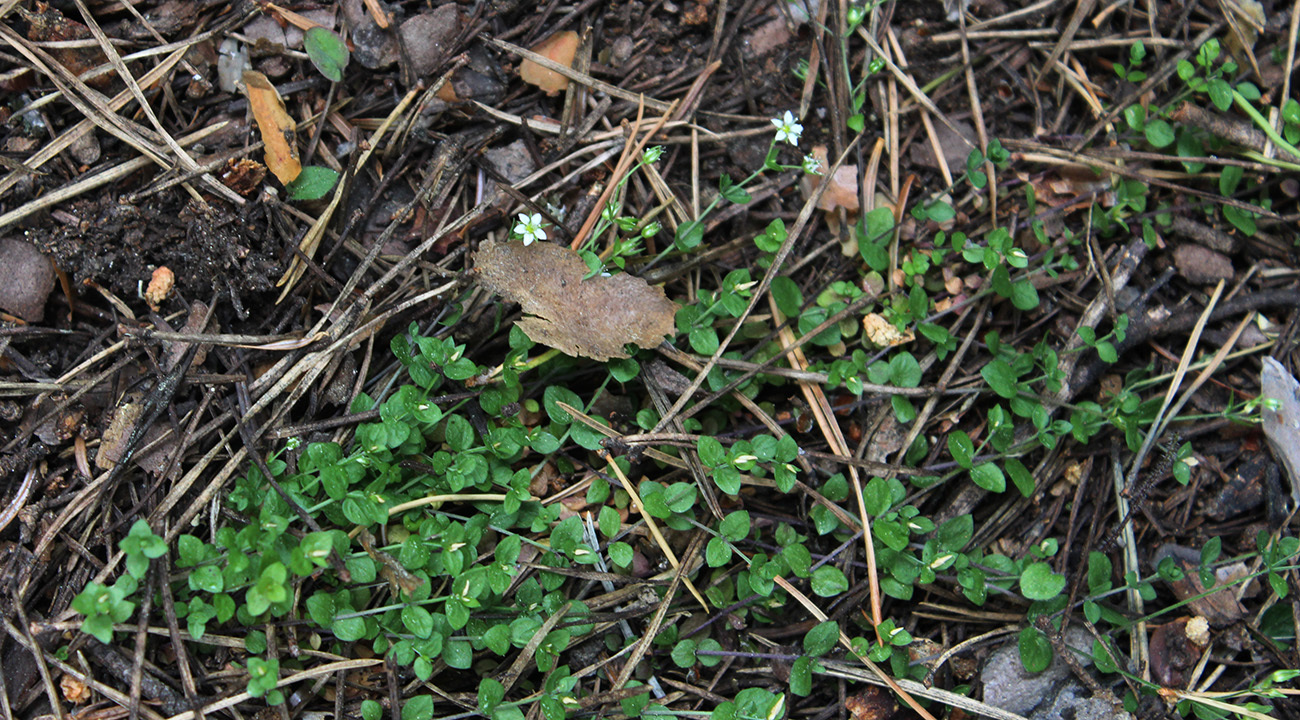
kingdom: Plantae
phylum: Tracheophyta
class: Magnoliopsida
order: Caryophyllales
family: Caryophyllaceae
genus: Arenaria
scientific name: Arenaria rotundifolia
